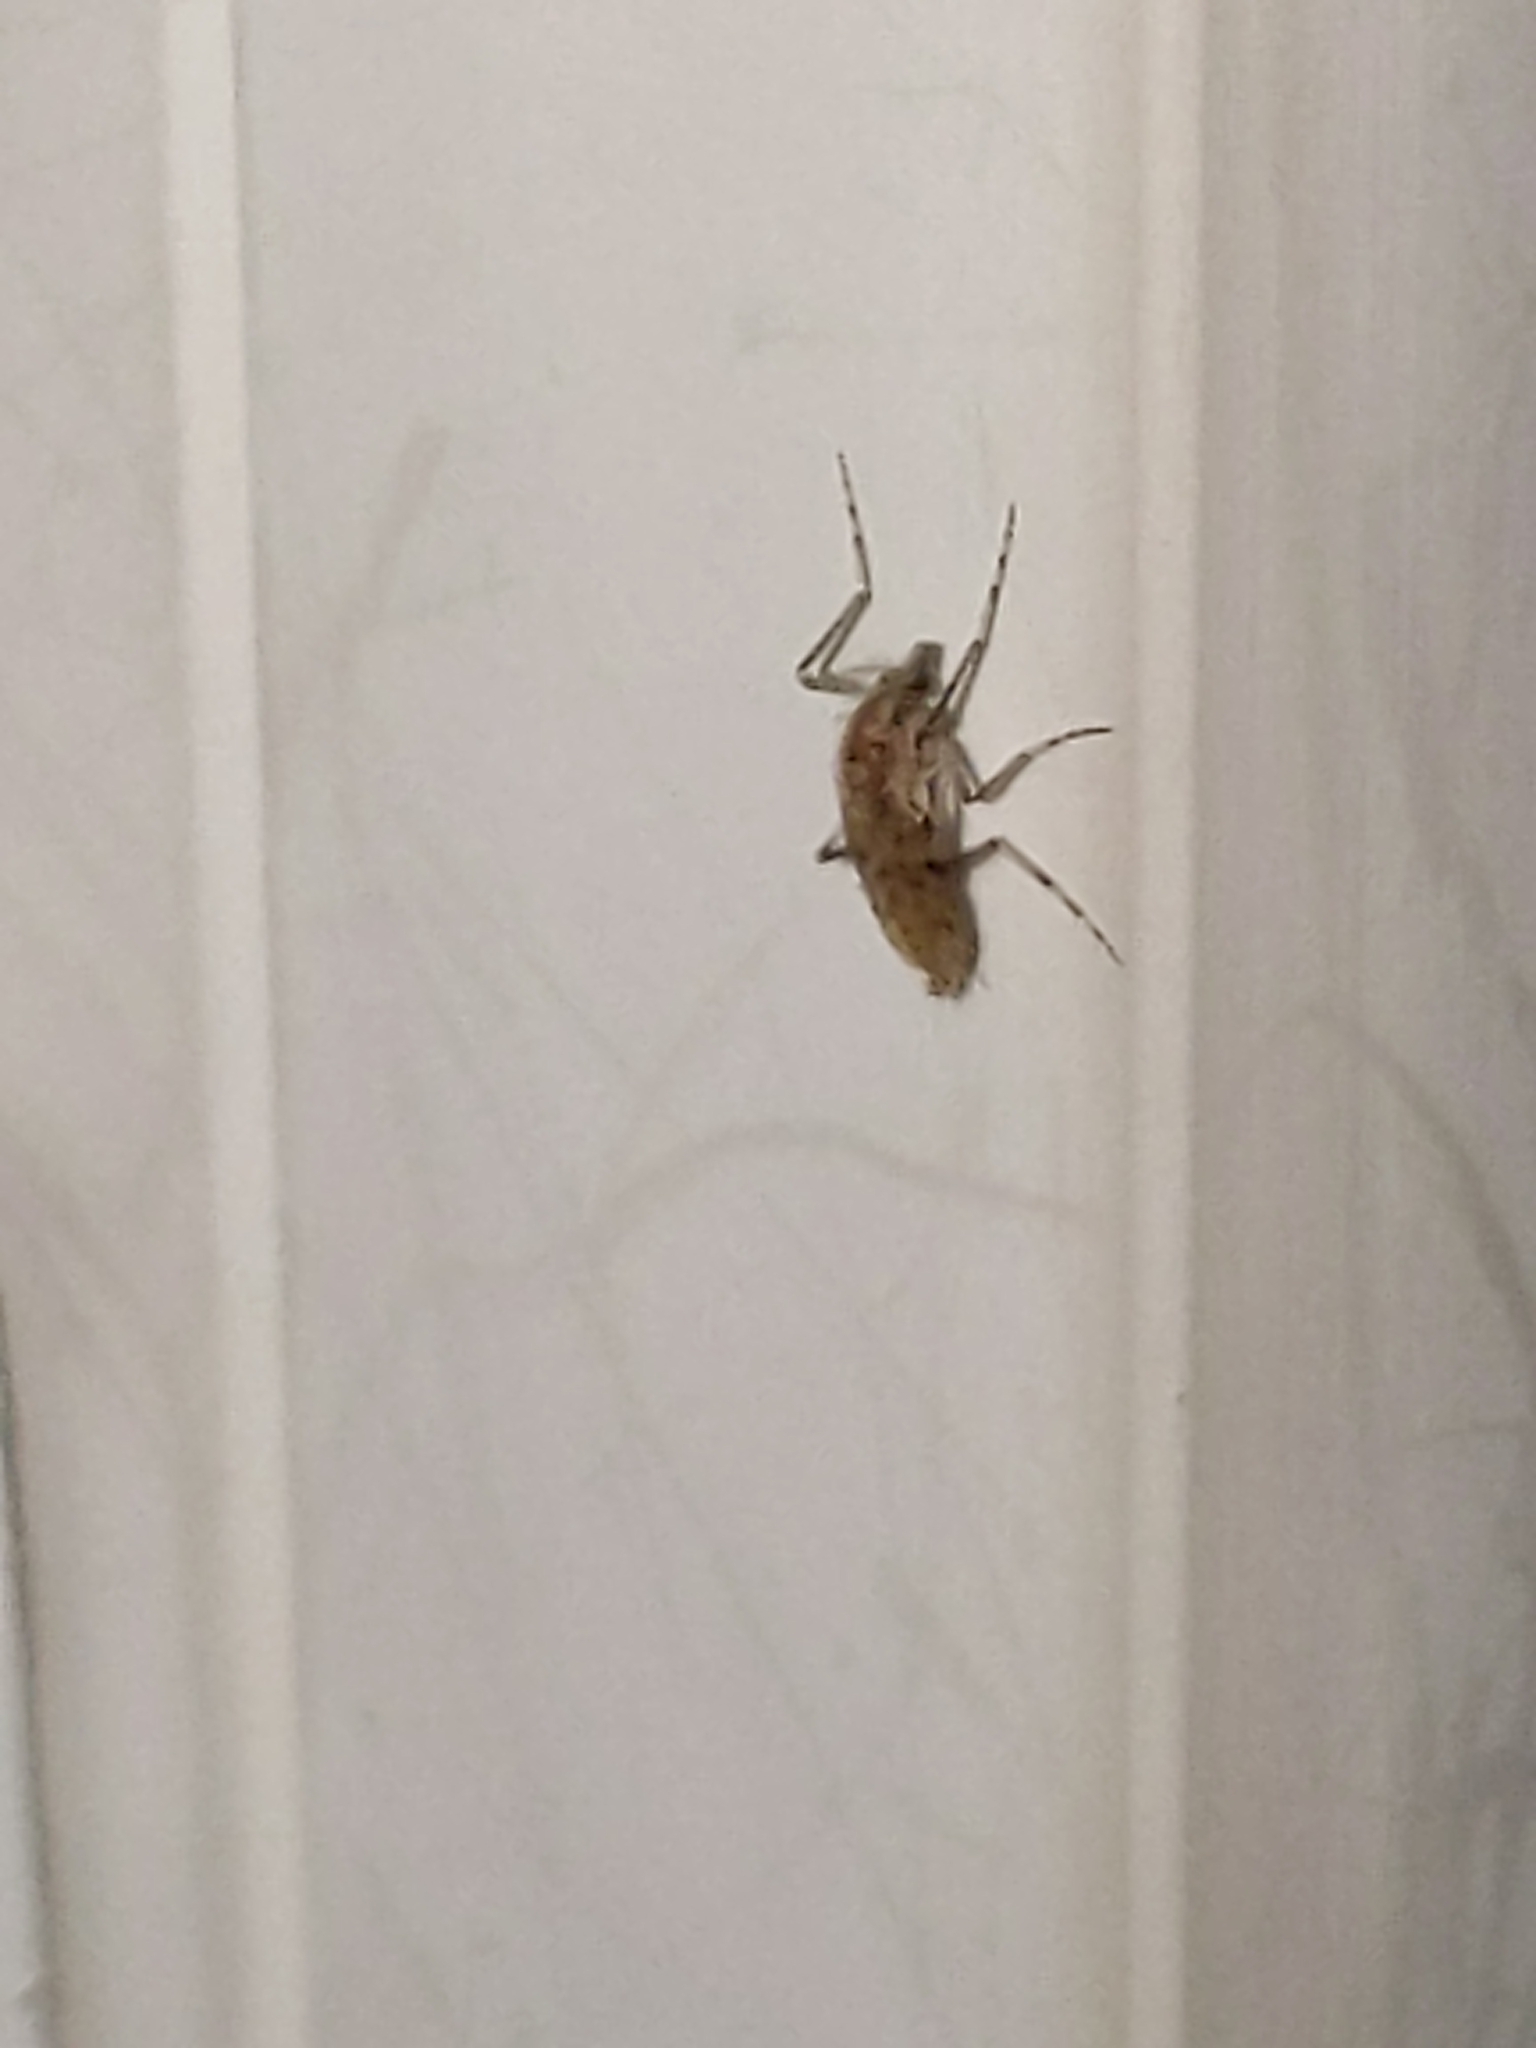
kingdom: Animalia
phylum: Arthropoda
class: Insecta
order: Diptera
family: Chaoboridae
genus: Chaoborus
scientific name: Chaoborus punctipennis
